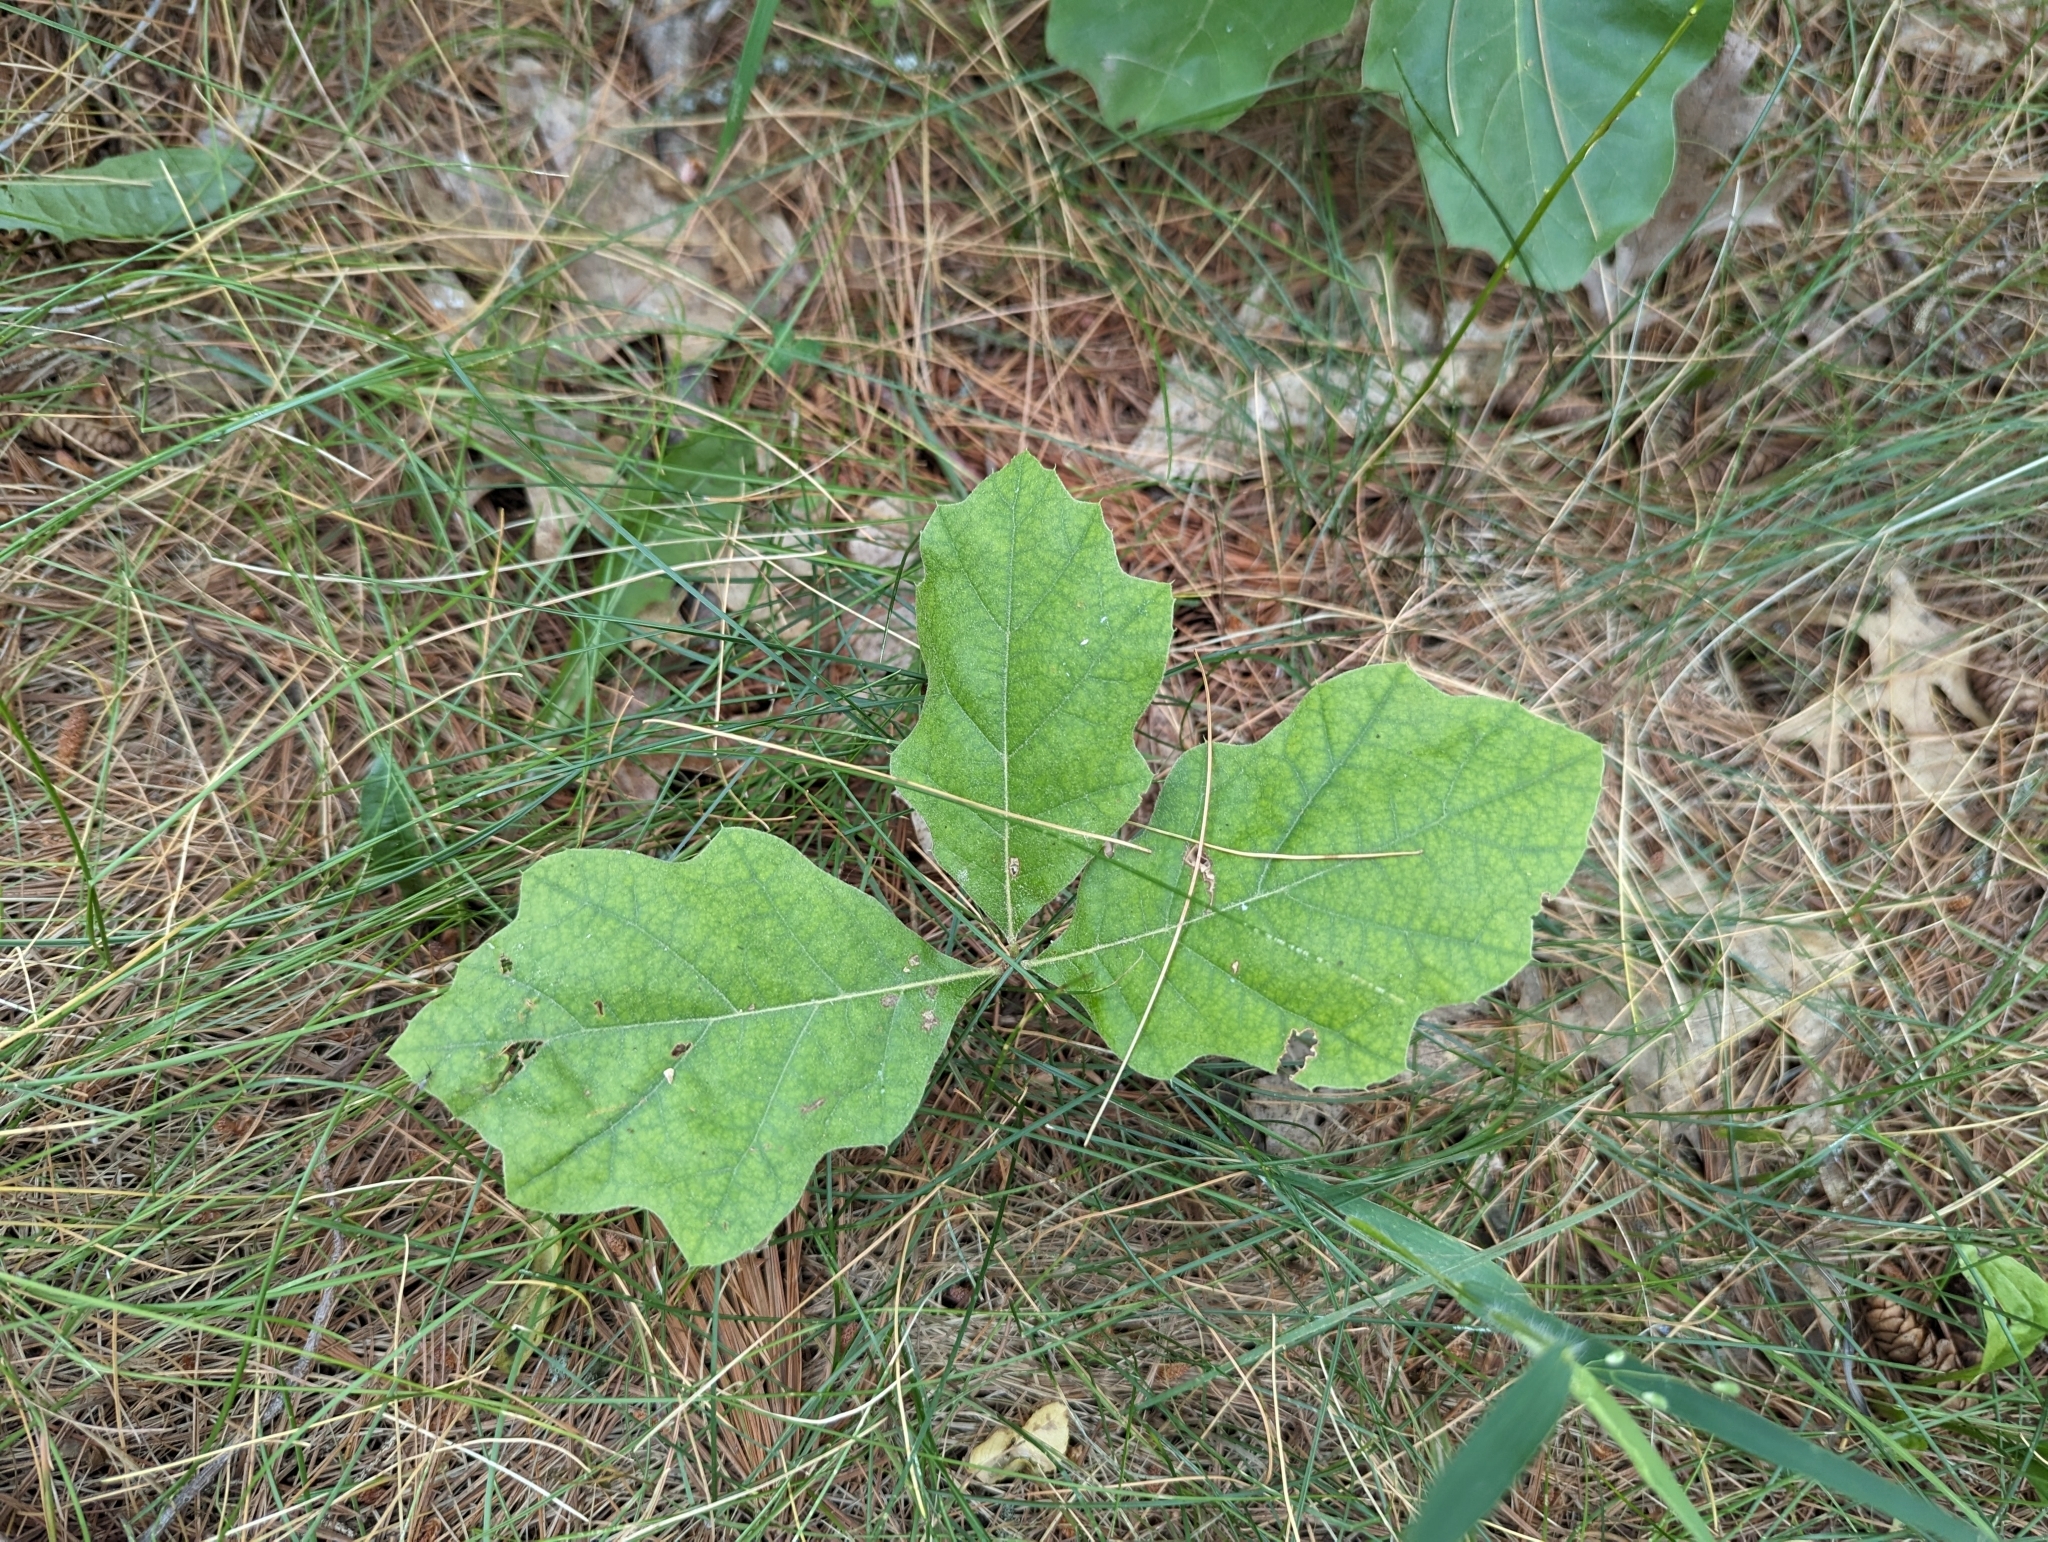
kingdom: Plantae
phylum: Tracheophyta
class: Magnoliopsida
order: Fagales
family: Fagaceae
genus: Quercus
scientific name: Quercus rubra
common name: Red oak
